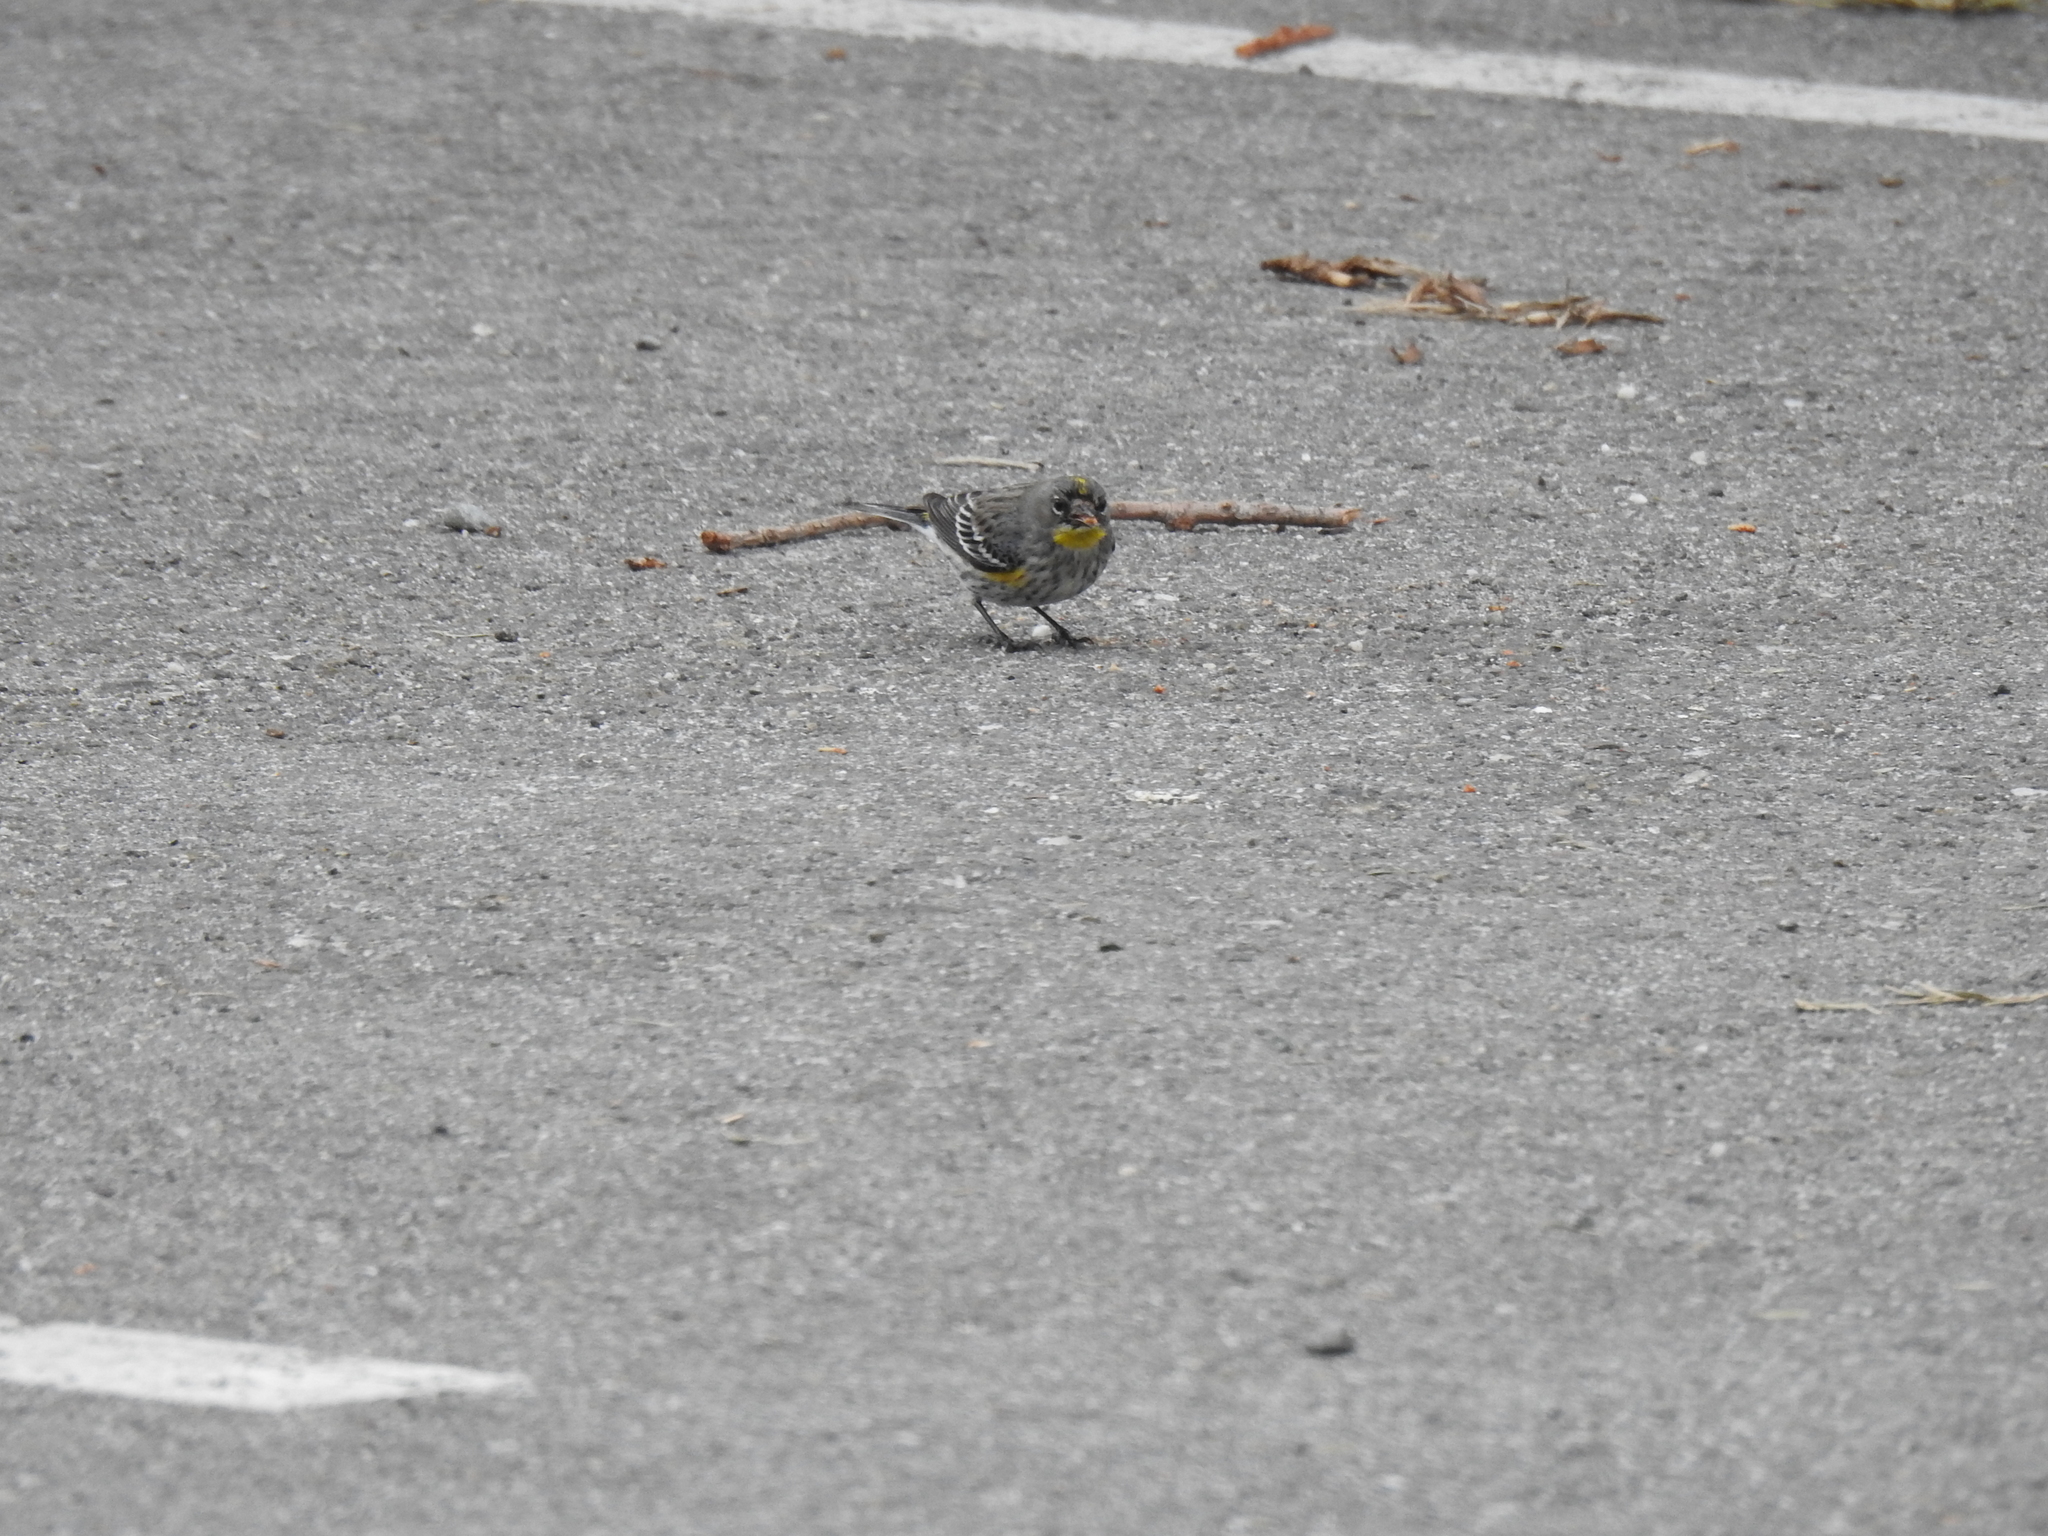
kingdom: Animalia
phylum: Chordata
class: Aves
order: Passeriformes
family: Parulidae
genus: Setophaga
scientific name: Setophaga coronata
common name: Myrtle warbler
